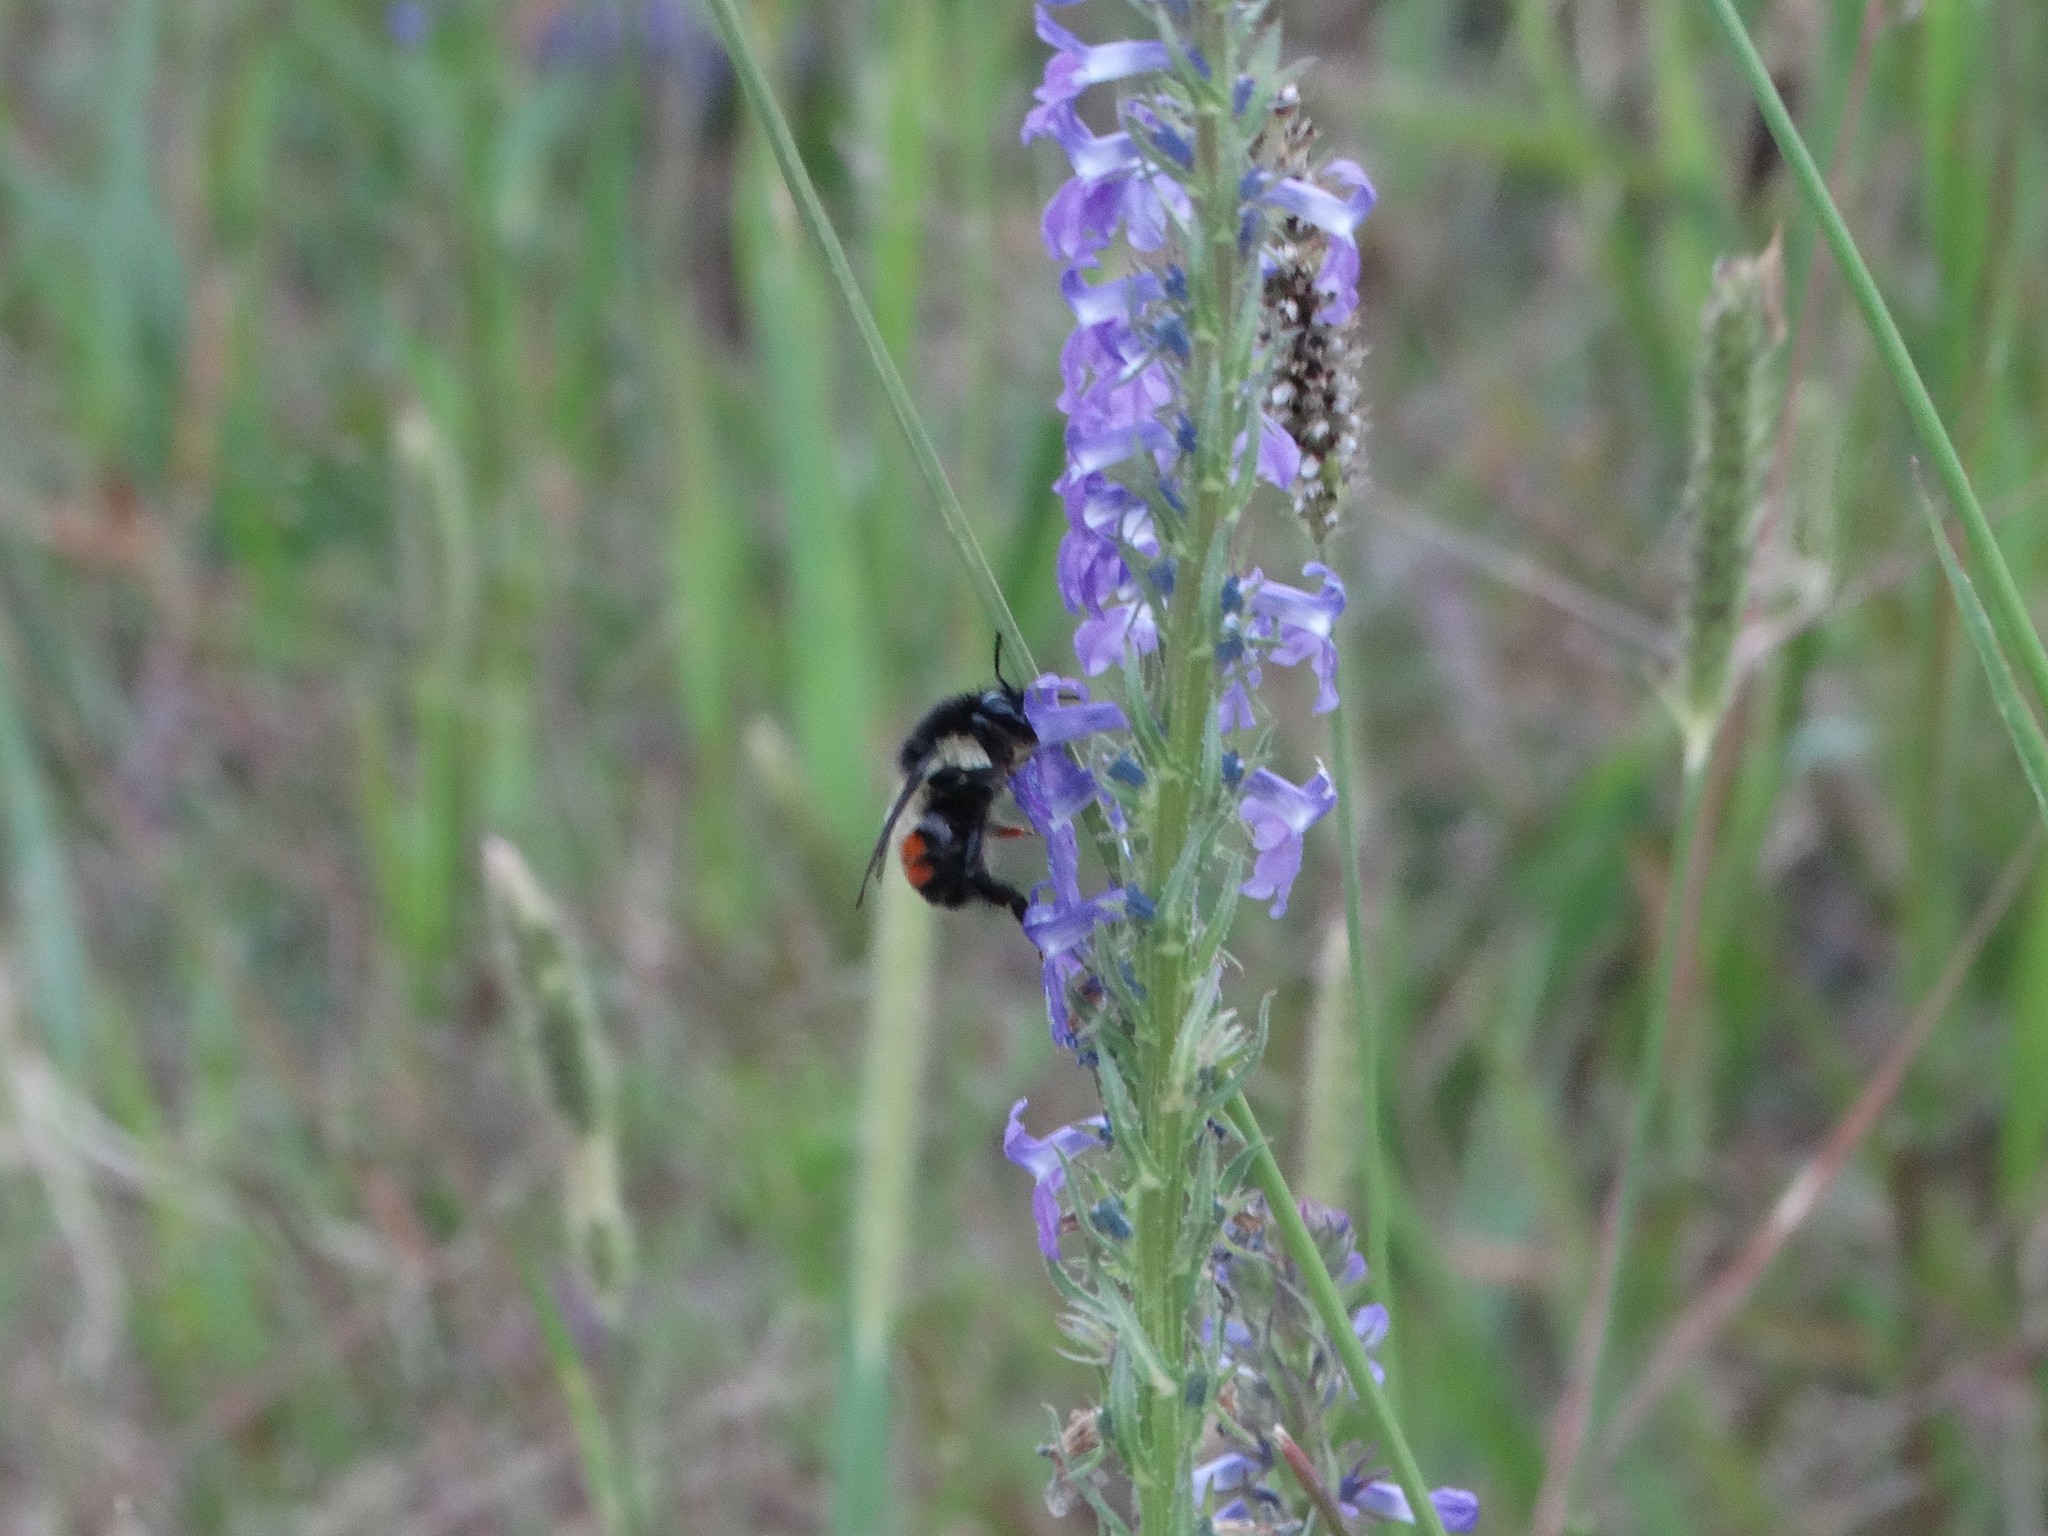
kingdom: Animalia
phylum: Arthropoda
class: Insecta
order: Hymenoptera
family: Apidae
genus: Bombus
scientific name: Bombus ephippiatus
